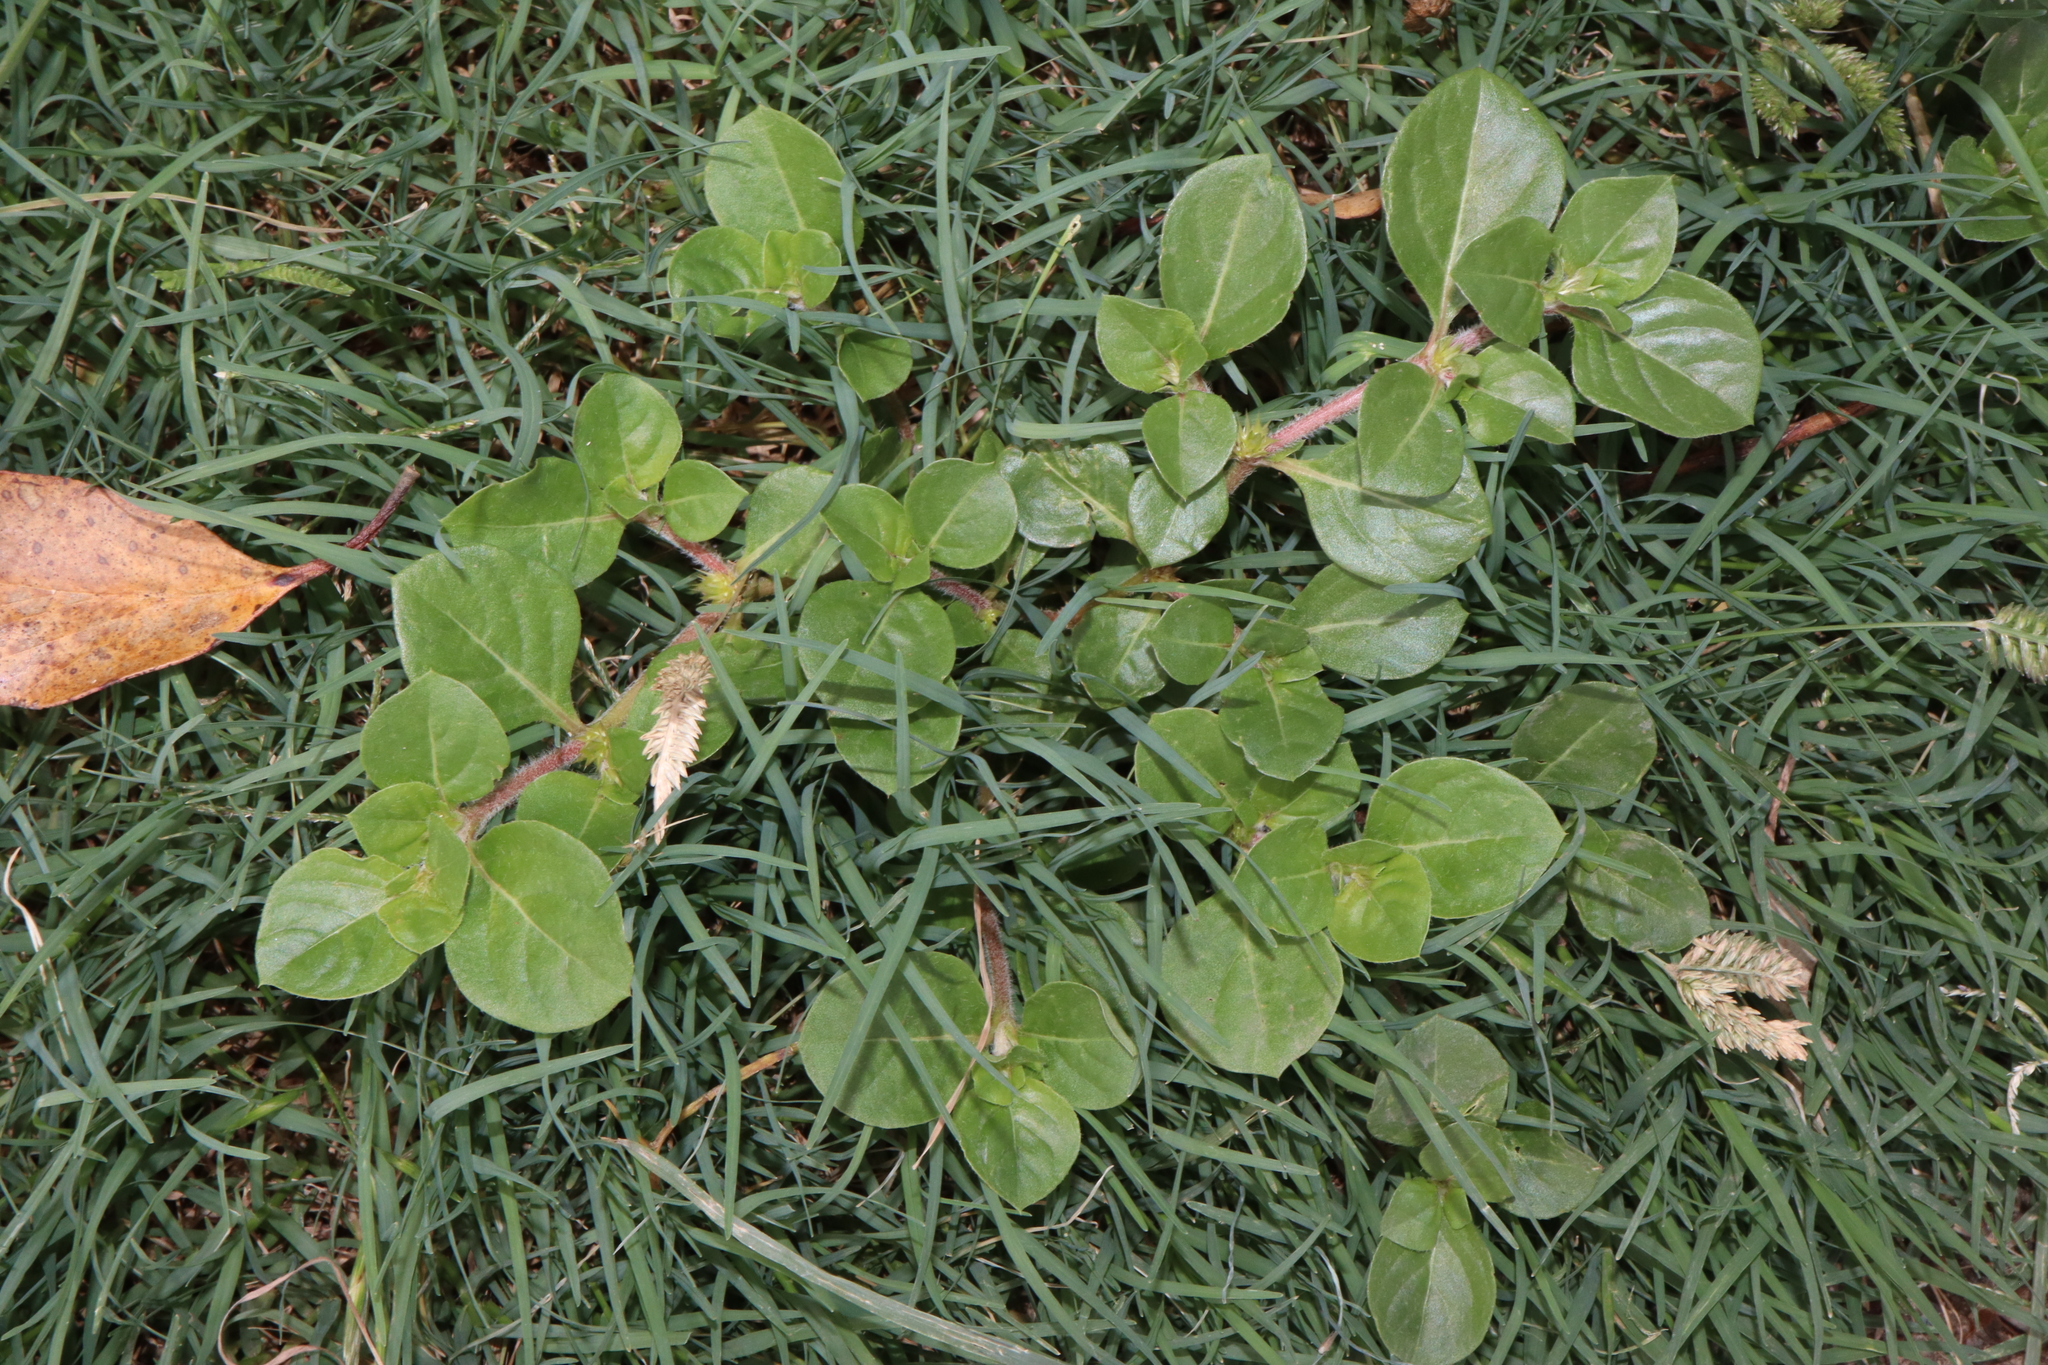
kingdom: Plantae
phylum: Tracheophyta
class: Magnoliopsida
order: Caryophyllales
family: Amaranthaceae
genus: Alternanthera
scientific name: Alternanthera pungens
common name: Khakiweed
